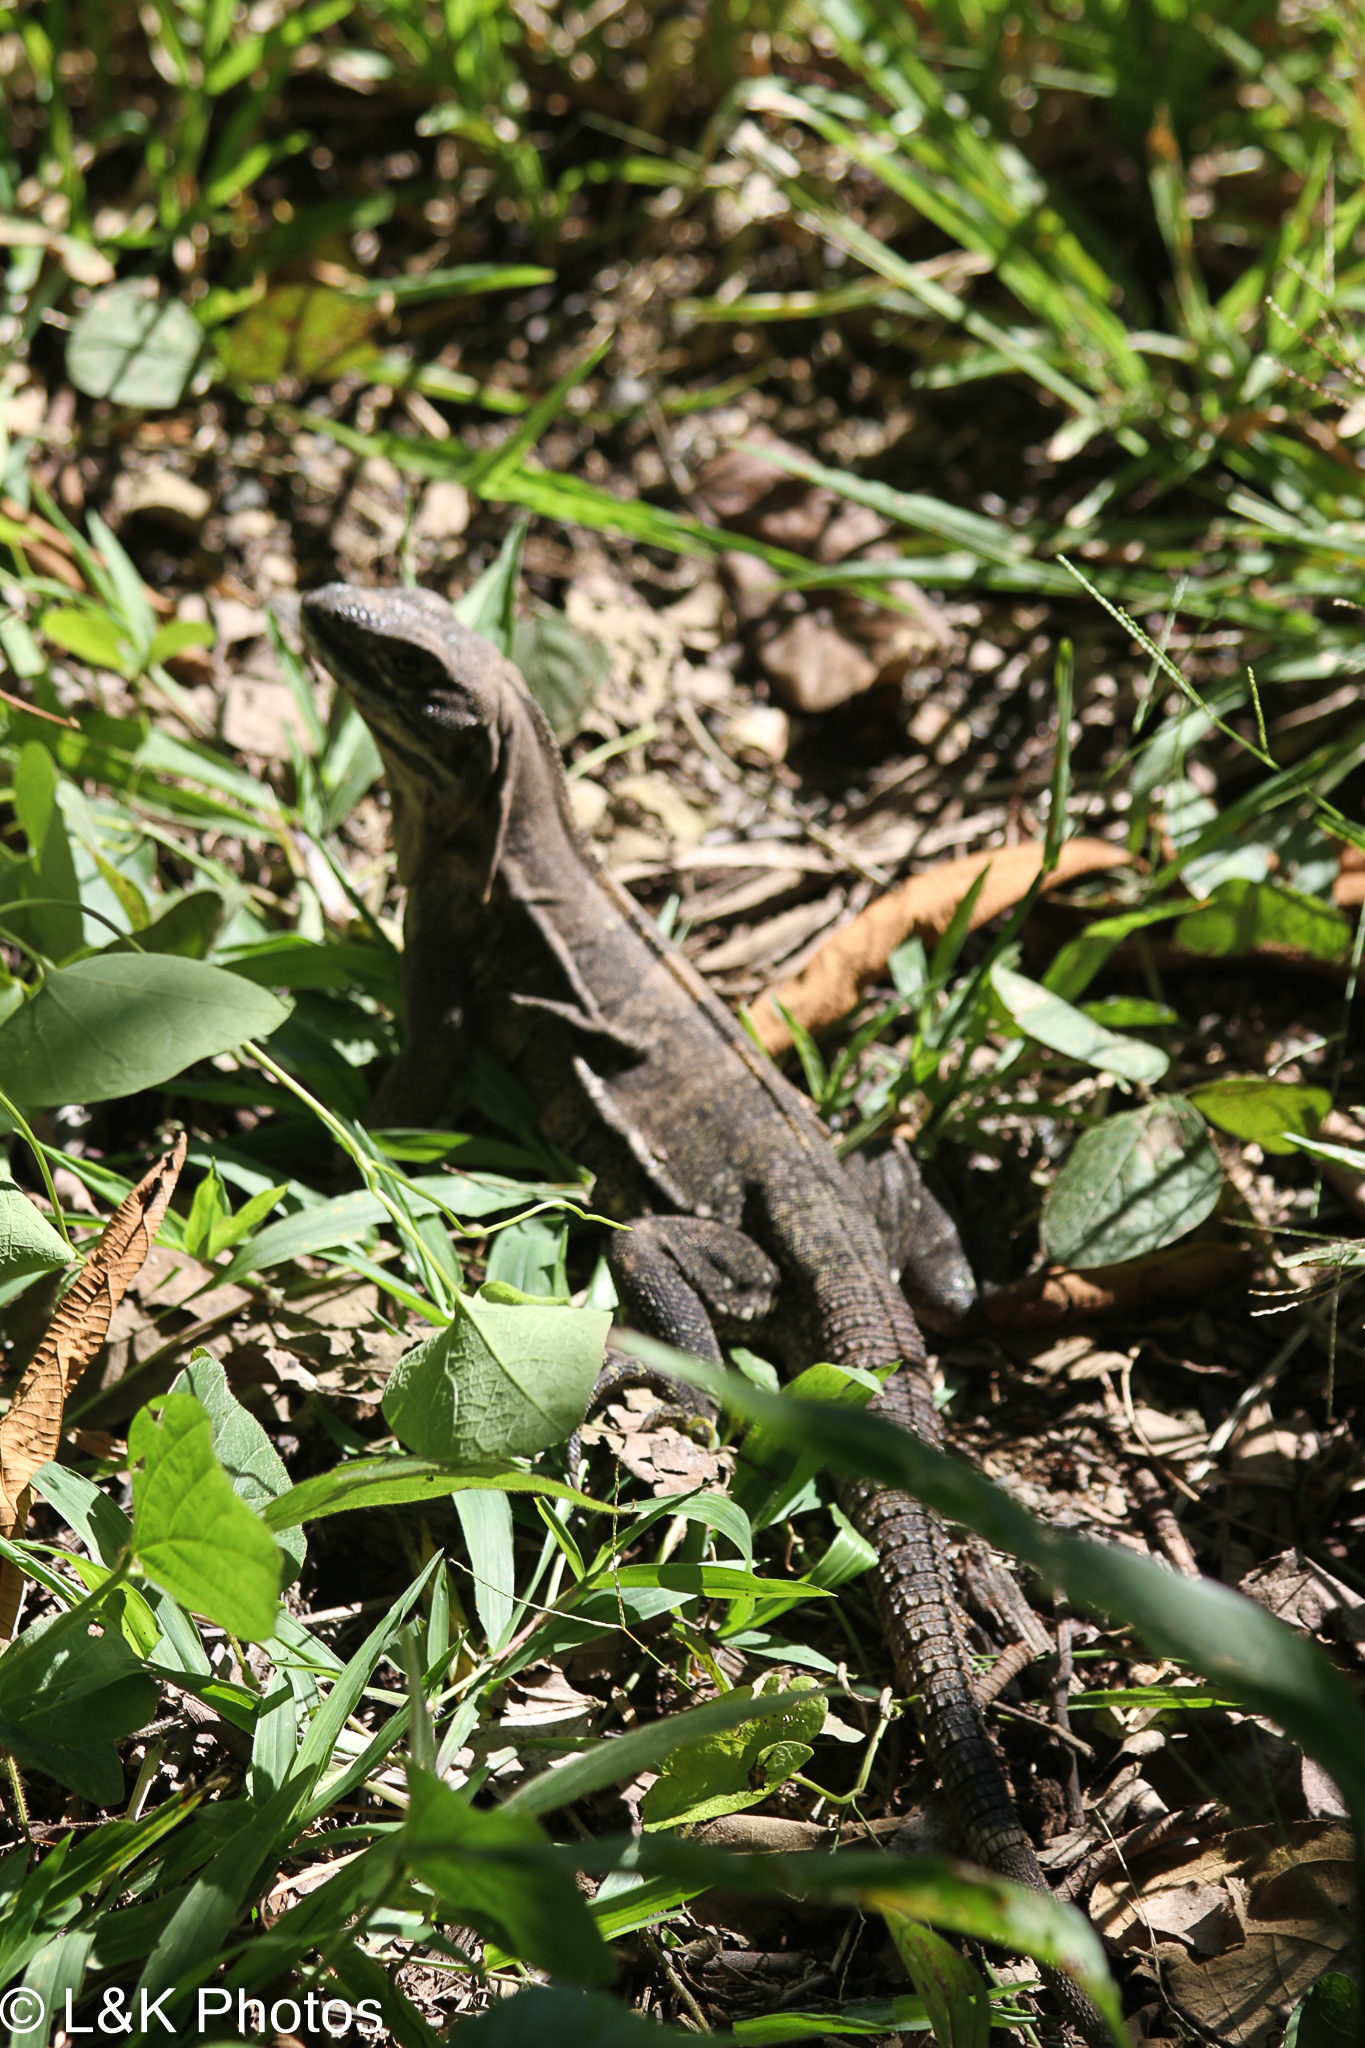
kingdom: Animalia
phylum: Chordata
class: Squamata
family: Iguanidae
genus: Ctenosaura
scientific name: Ctenosaura similis
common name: Black spiny-tailed iguana
